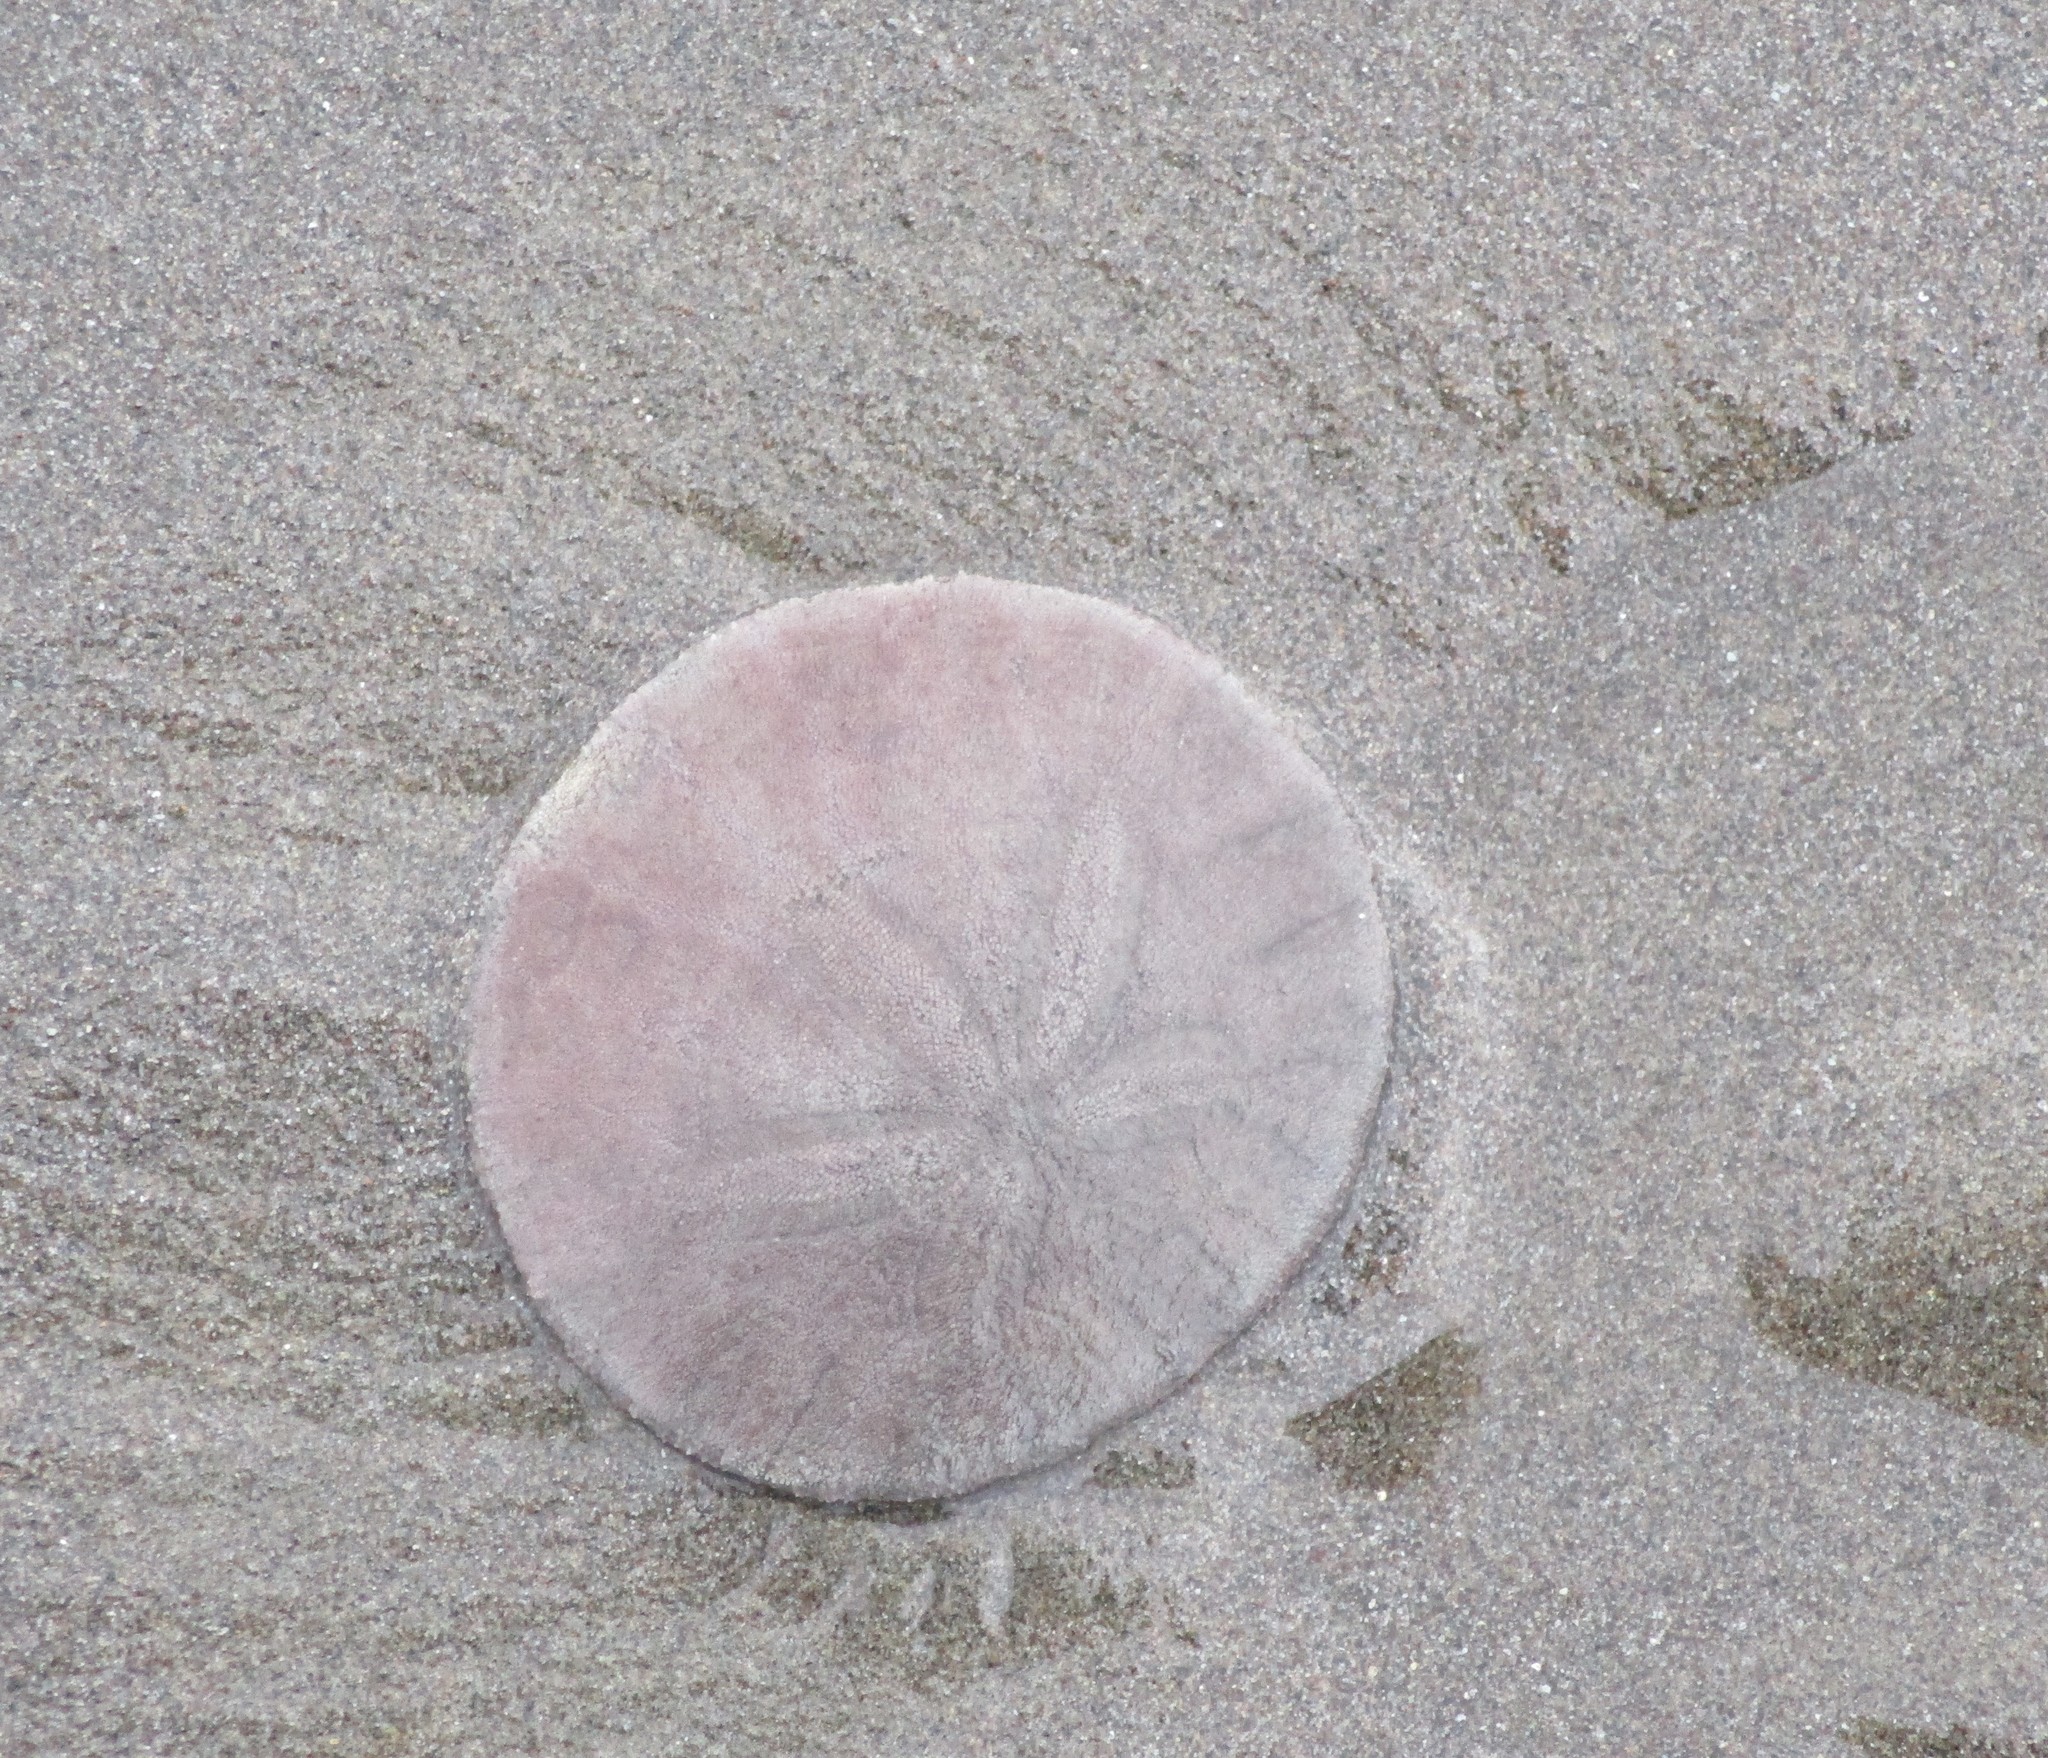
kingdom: Animalia
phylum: Echinodermata
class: Echinoidea
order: Echinolampadacea
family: Dendrasteridae
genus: Dendraster
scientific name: Dendraster excentricus
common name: Eccentric sand dollar sea urchin
